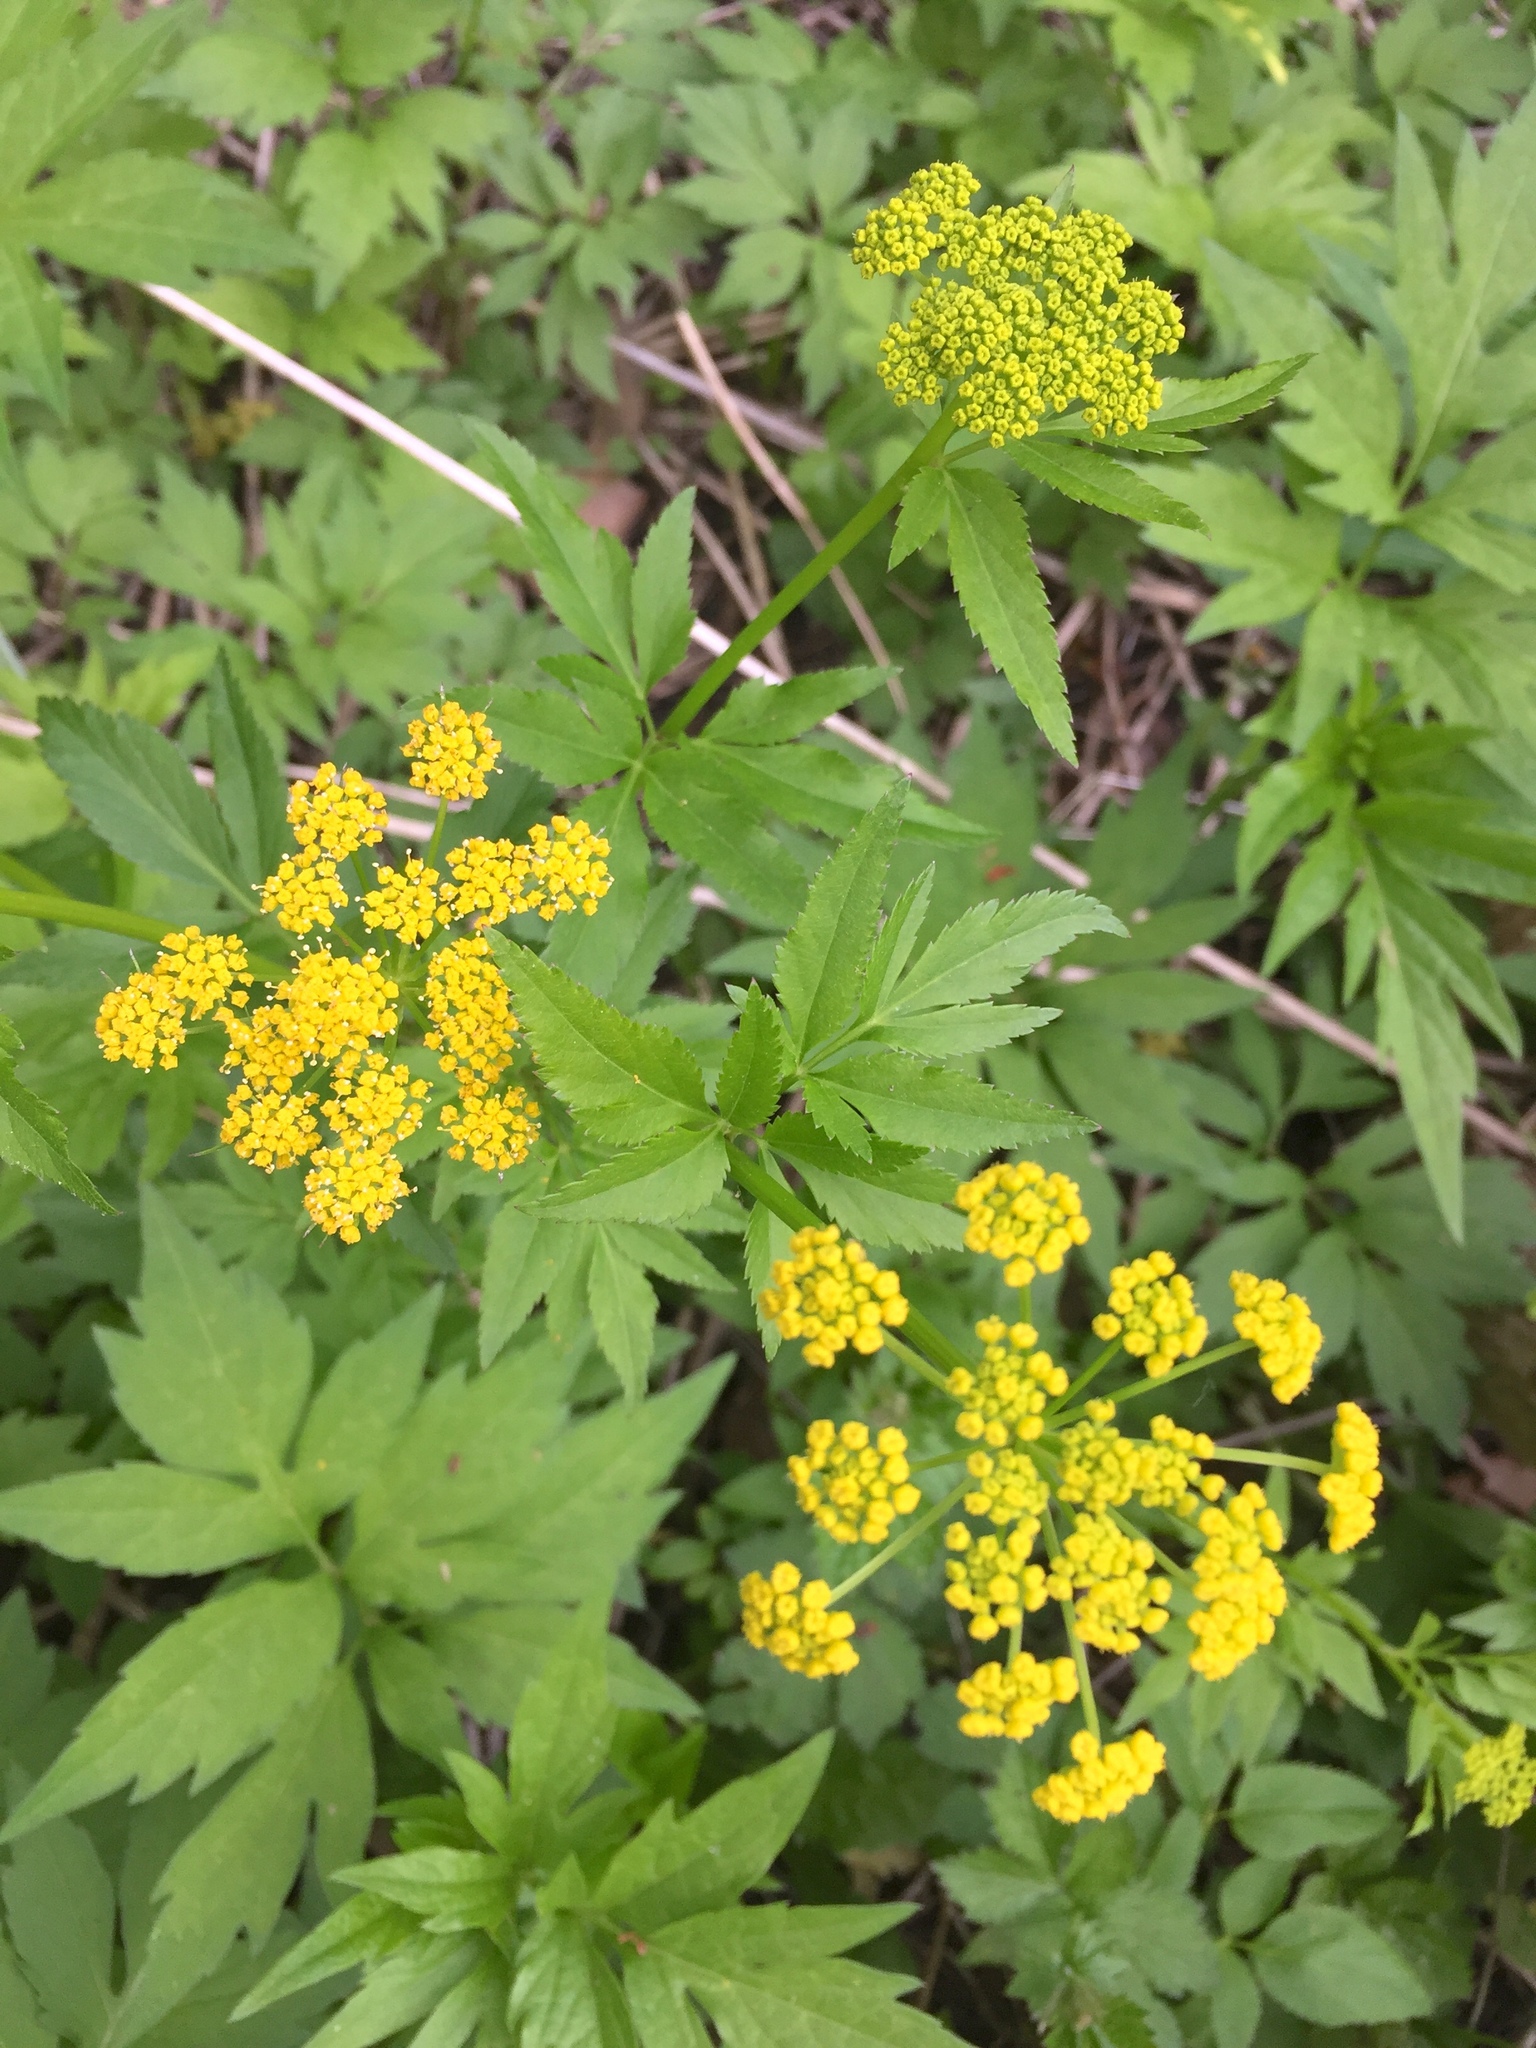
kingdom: Plantae
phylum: Tracheophyta
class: Magnoliopsida
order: Apiales
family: Apiaceae
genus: Zizia
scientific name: Zizia aurea
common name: Golden alexanders
